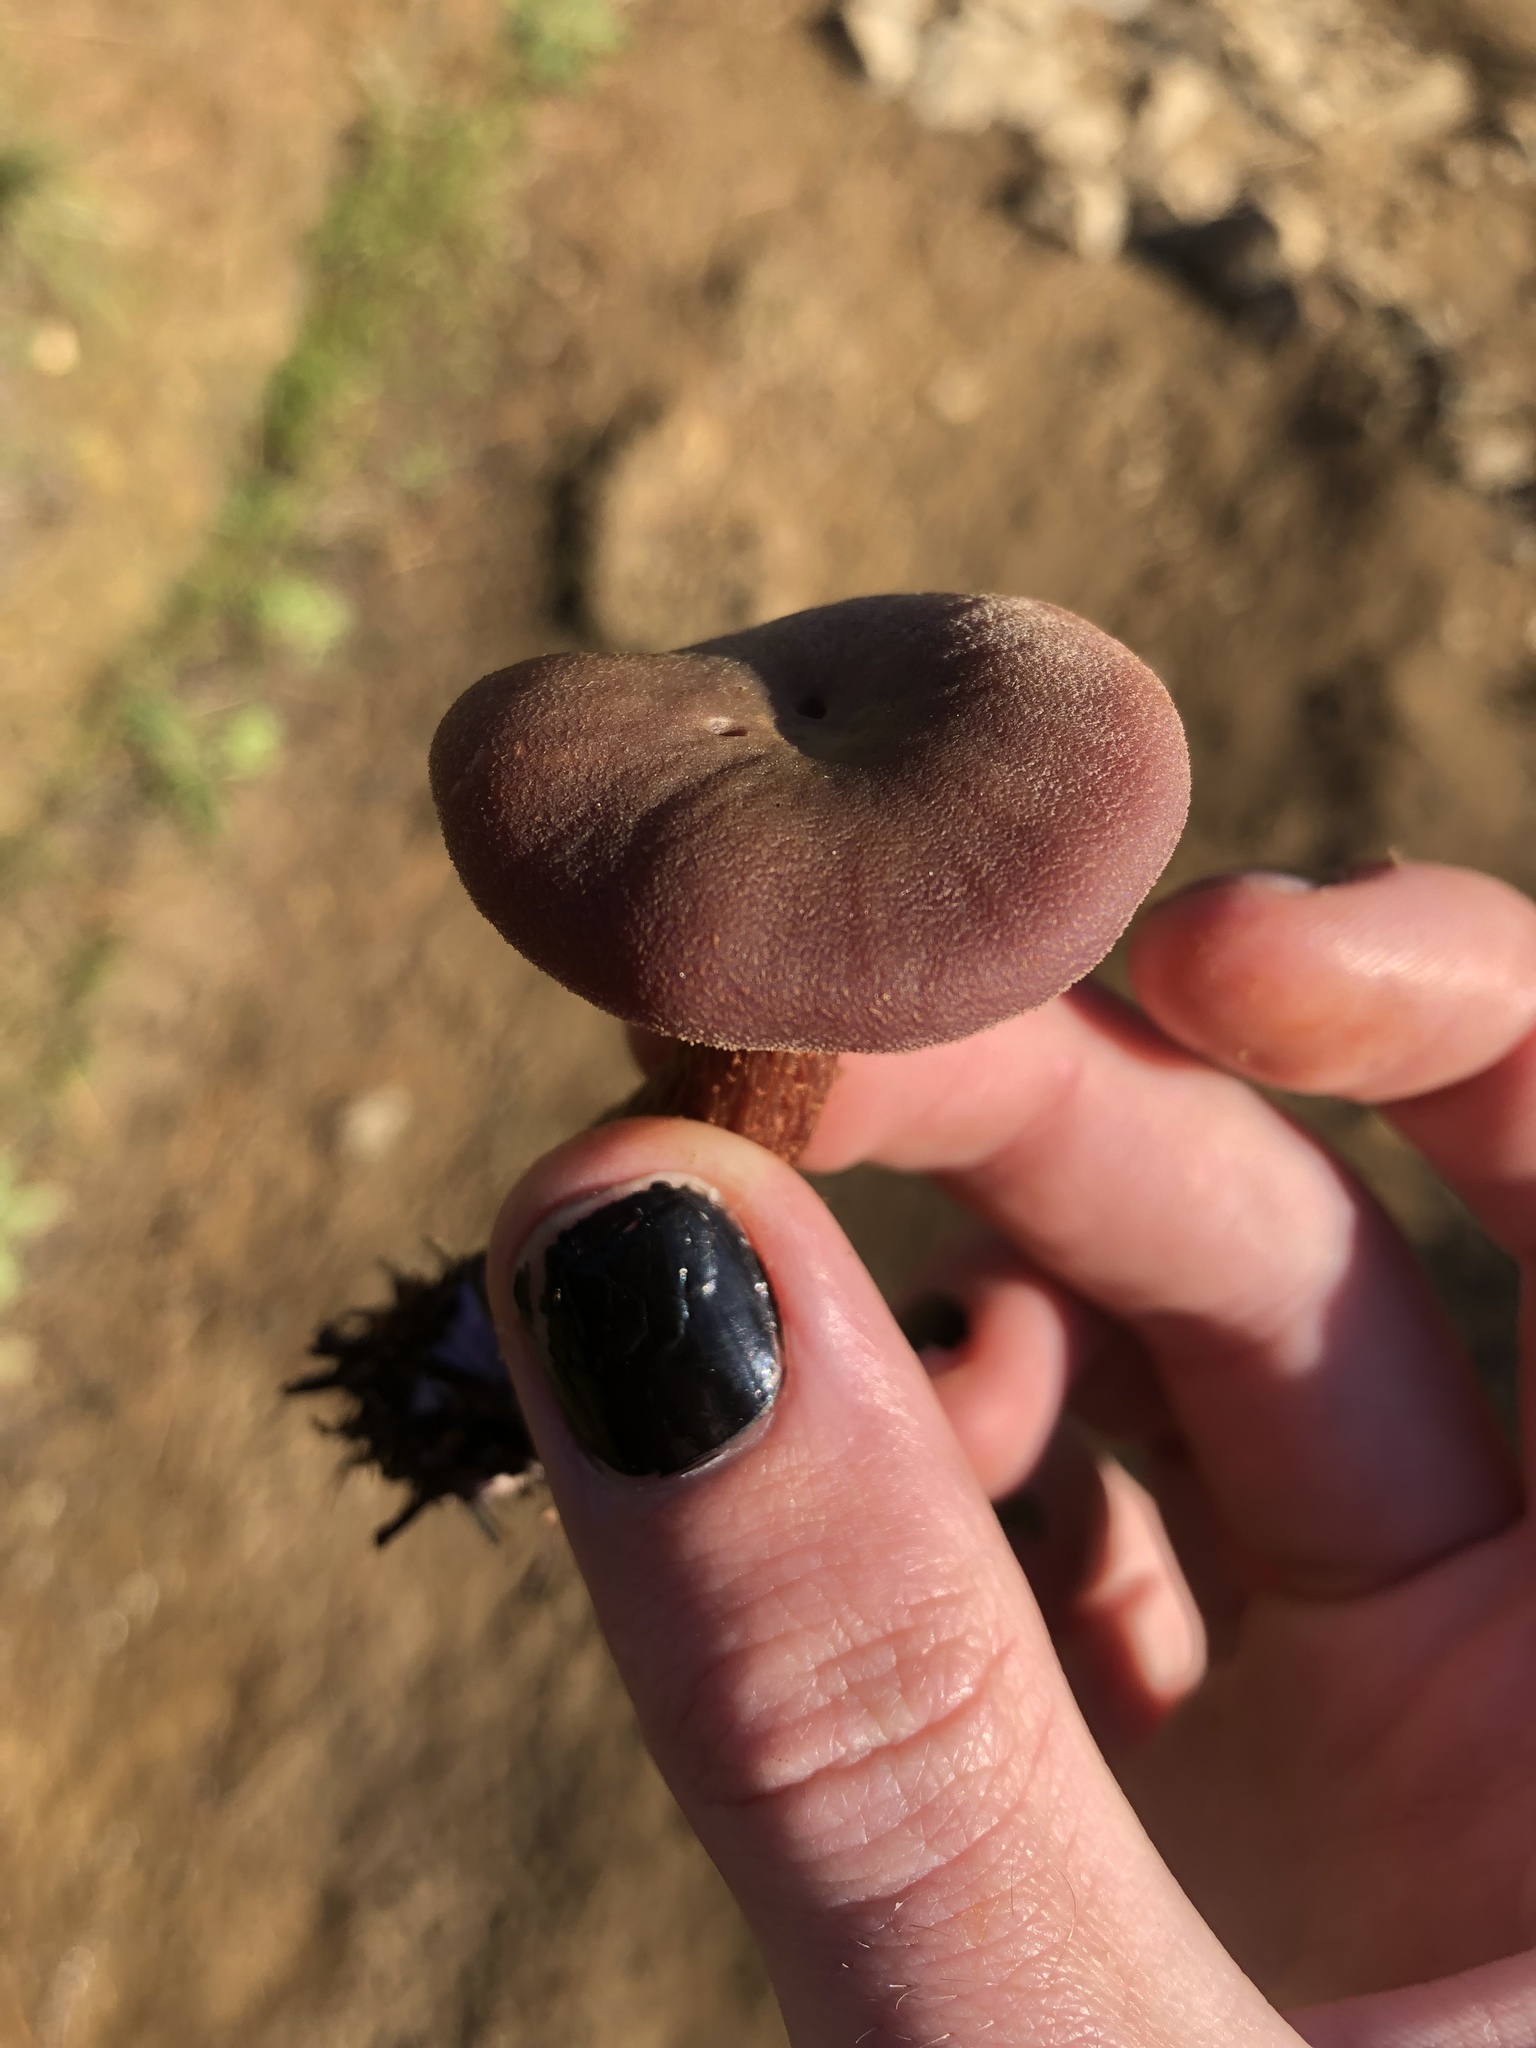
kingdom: Fungi
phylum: Basidiomycota
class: Agaricomycetes
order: Agaricales
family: Hydnangiaceae
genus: Laccaria
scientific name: Laccaria amethysteo-occidentalis
